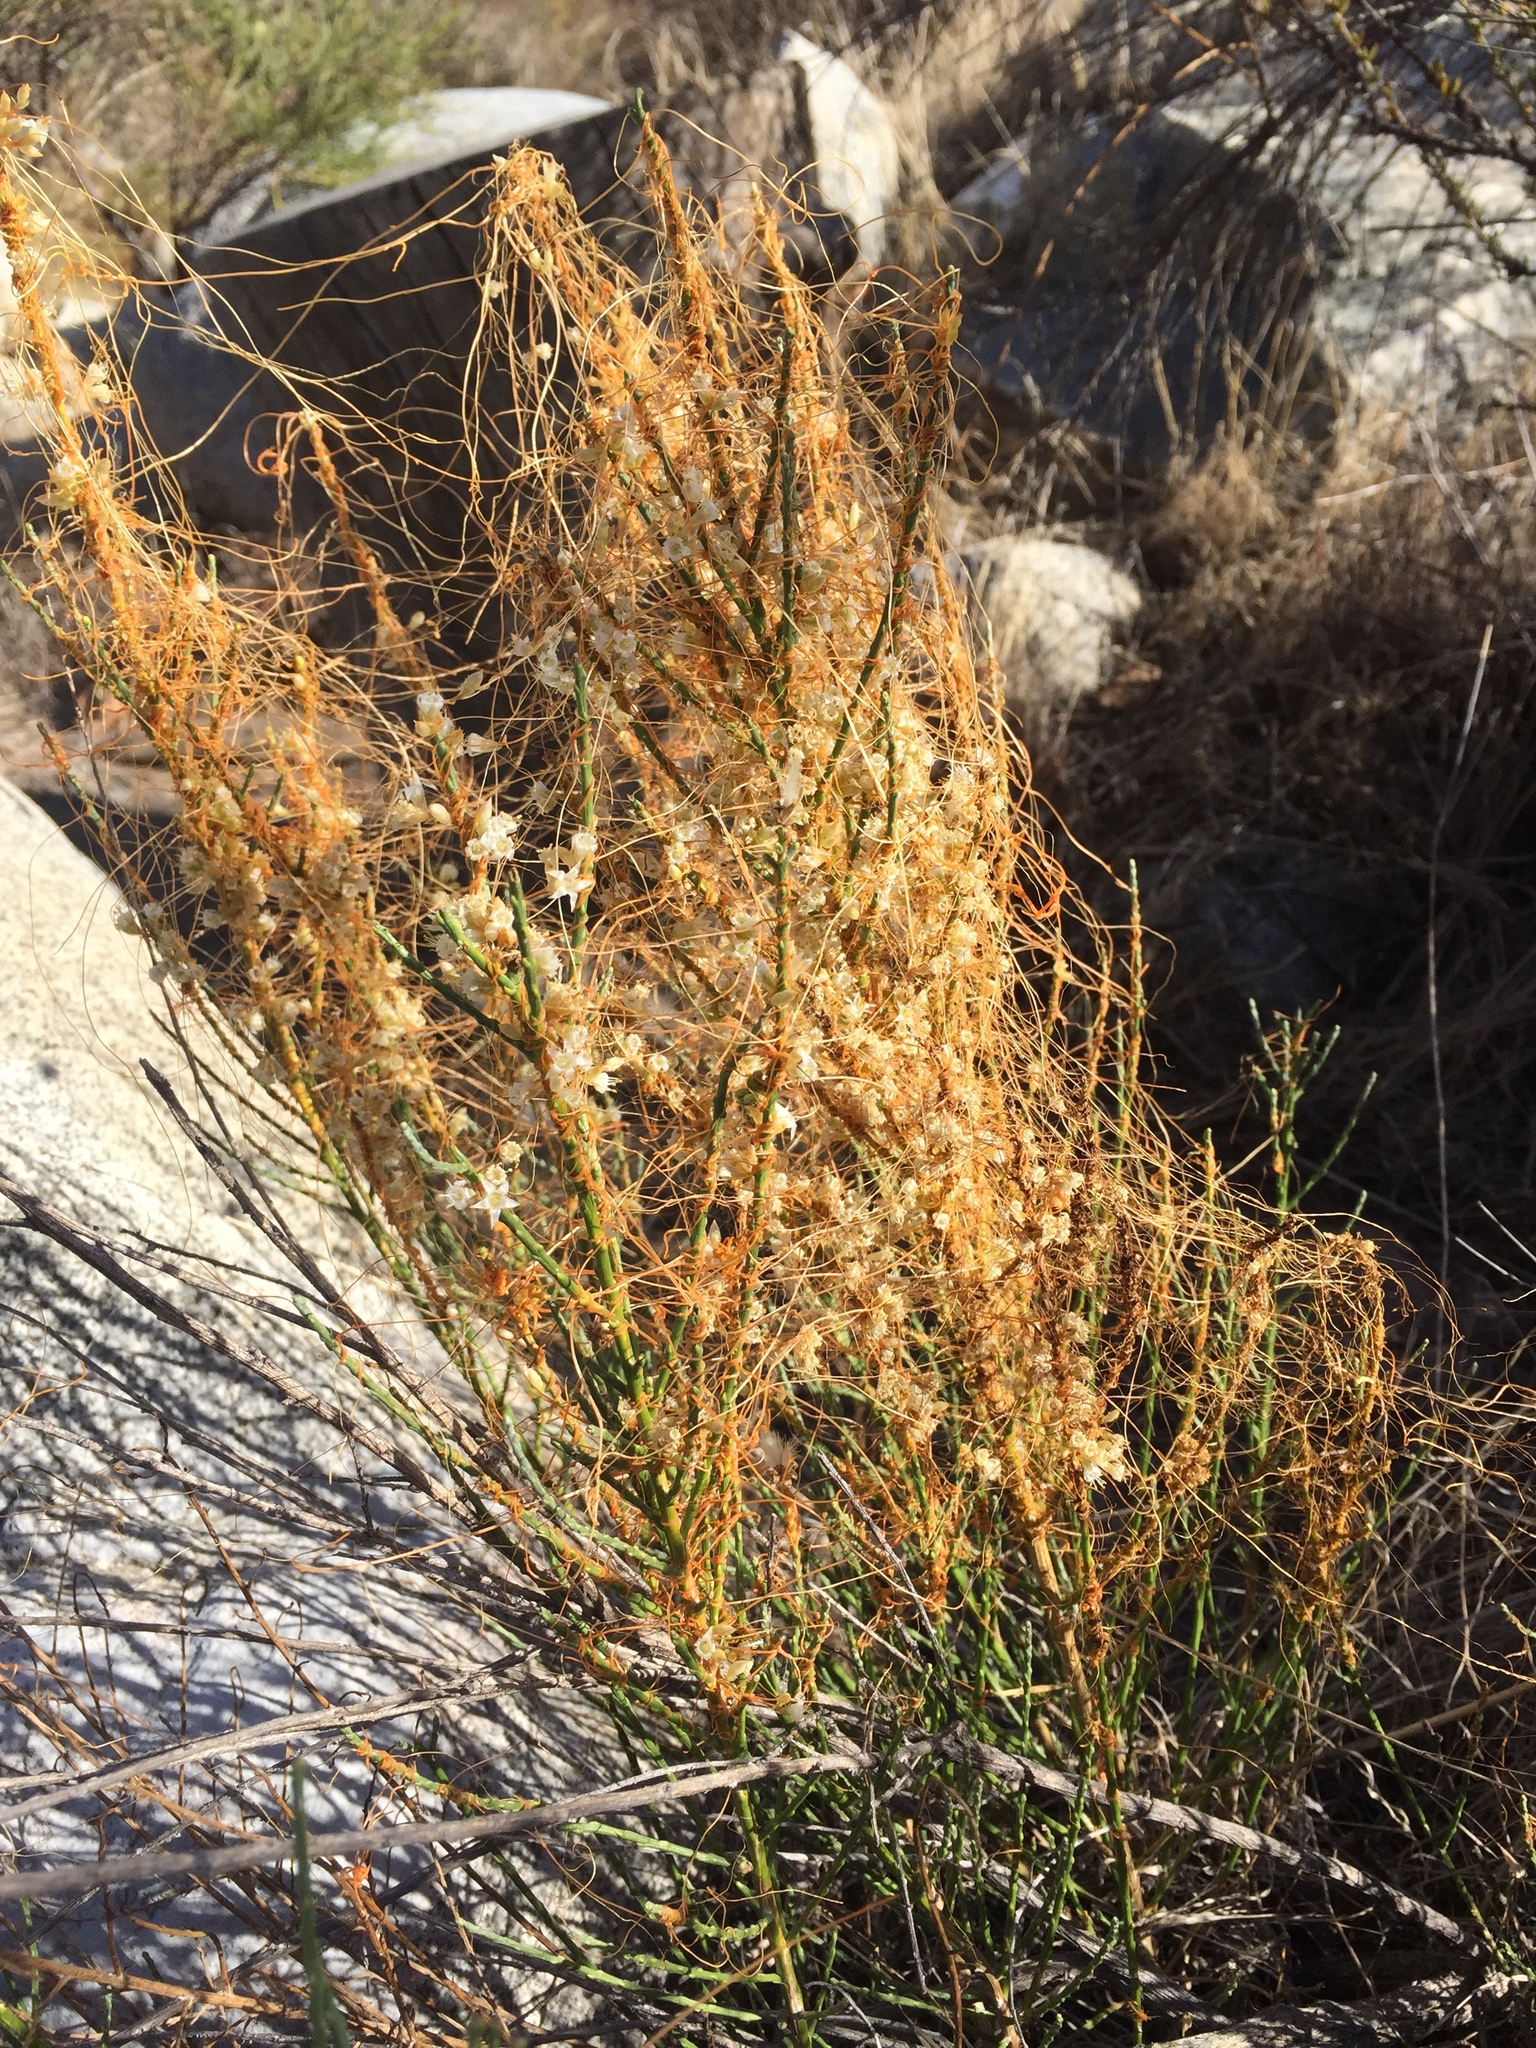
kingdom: Plantae
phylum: Tracheophyta
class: Magnoliopsida
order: Solanales
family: Convolvulaceae
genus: Cuscuta
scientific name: Cuscuta californica
